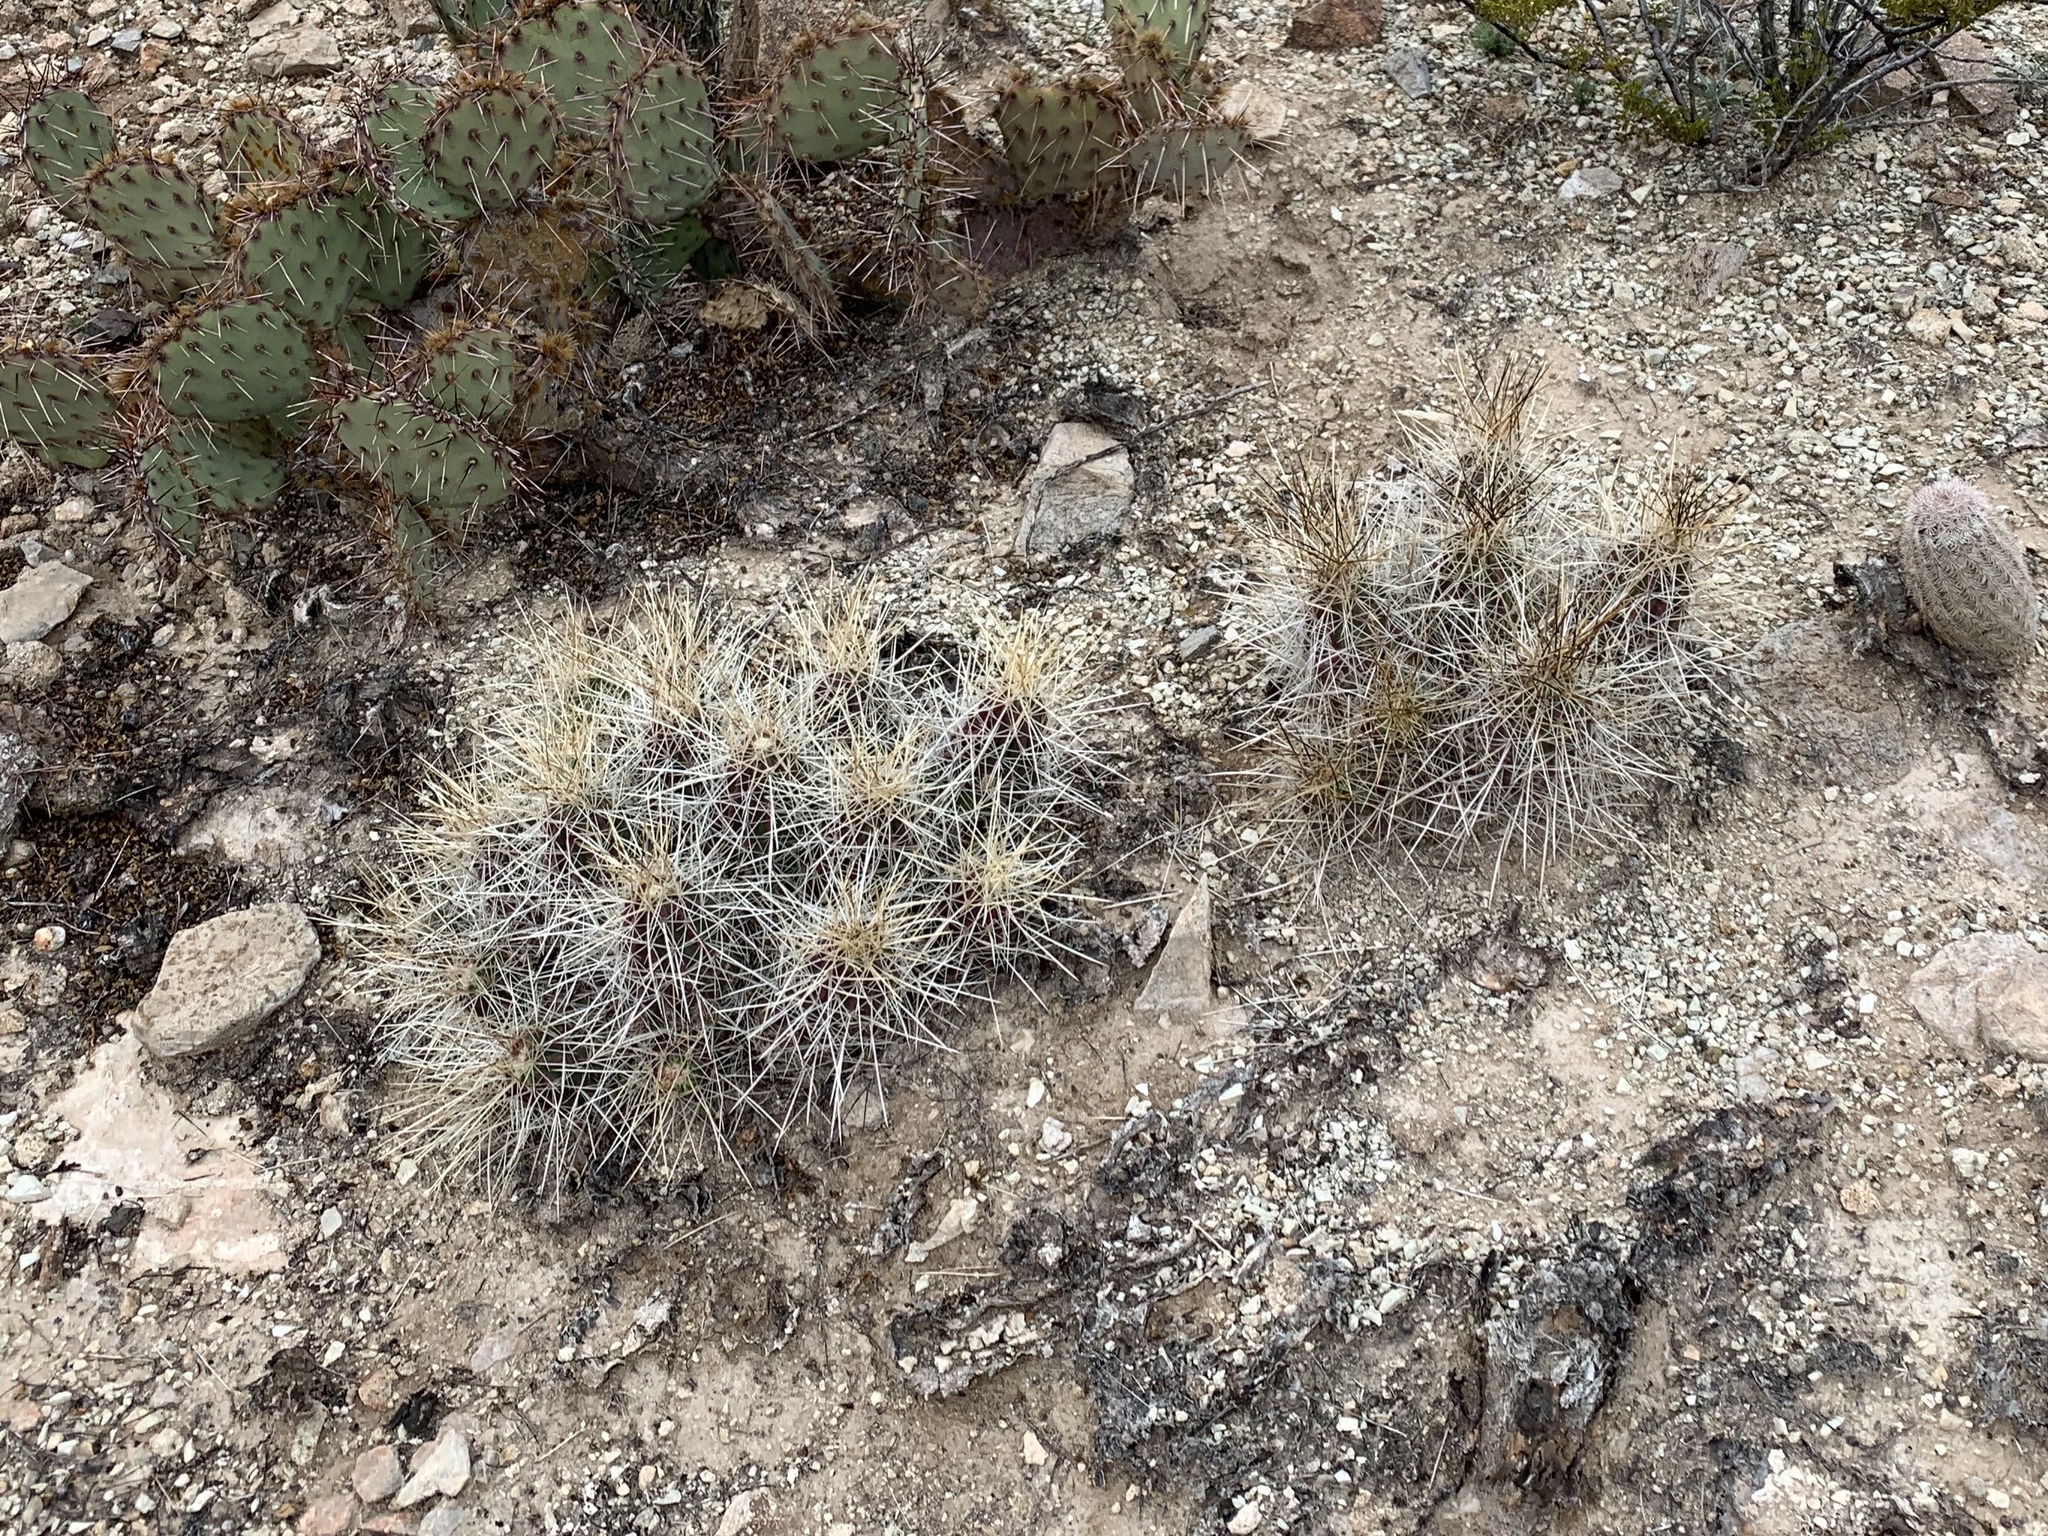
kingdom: Plantae
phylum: Tracheophyta
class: Magnoliopsida
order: Caryophyllales
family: Cactaceae
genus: Echinocereus
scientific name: Echinocereus stramineus
